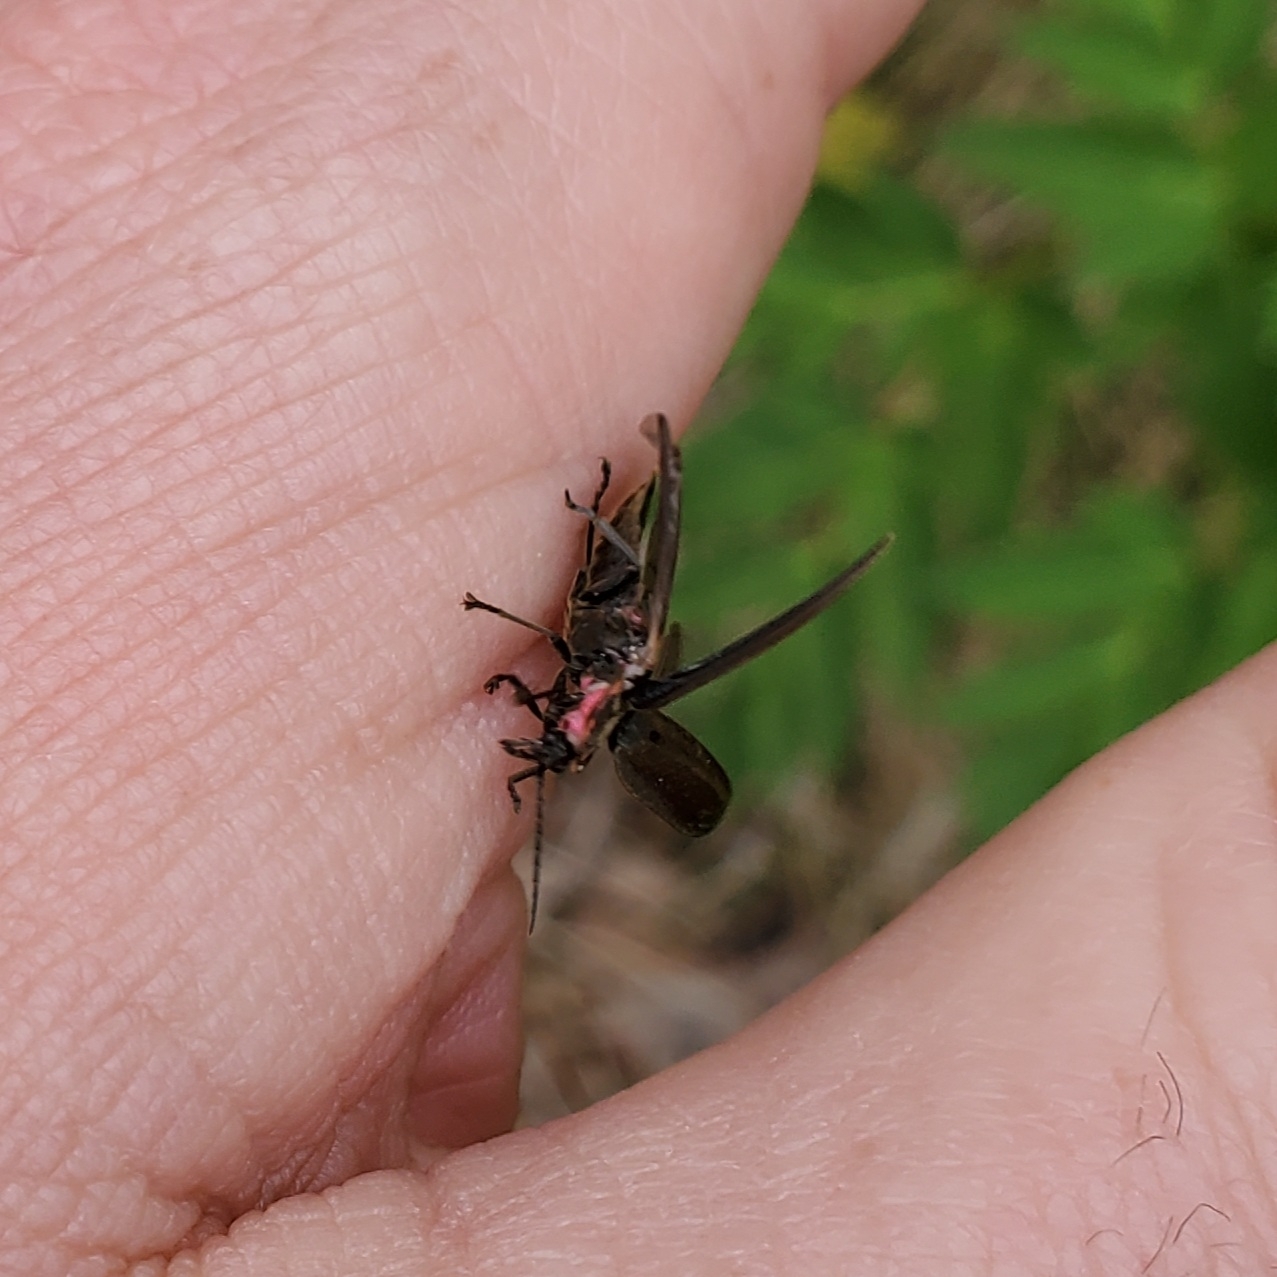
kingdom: Animalia
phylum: Arthropoda
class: Insecta
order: Coleoptera
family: Lampyridae
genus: Photinus
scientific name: Photinus corrusca
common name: Winter firefly
